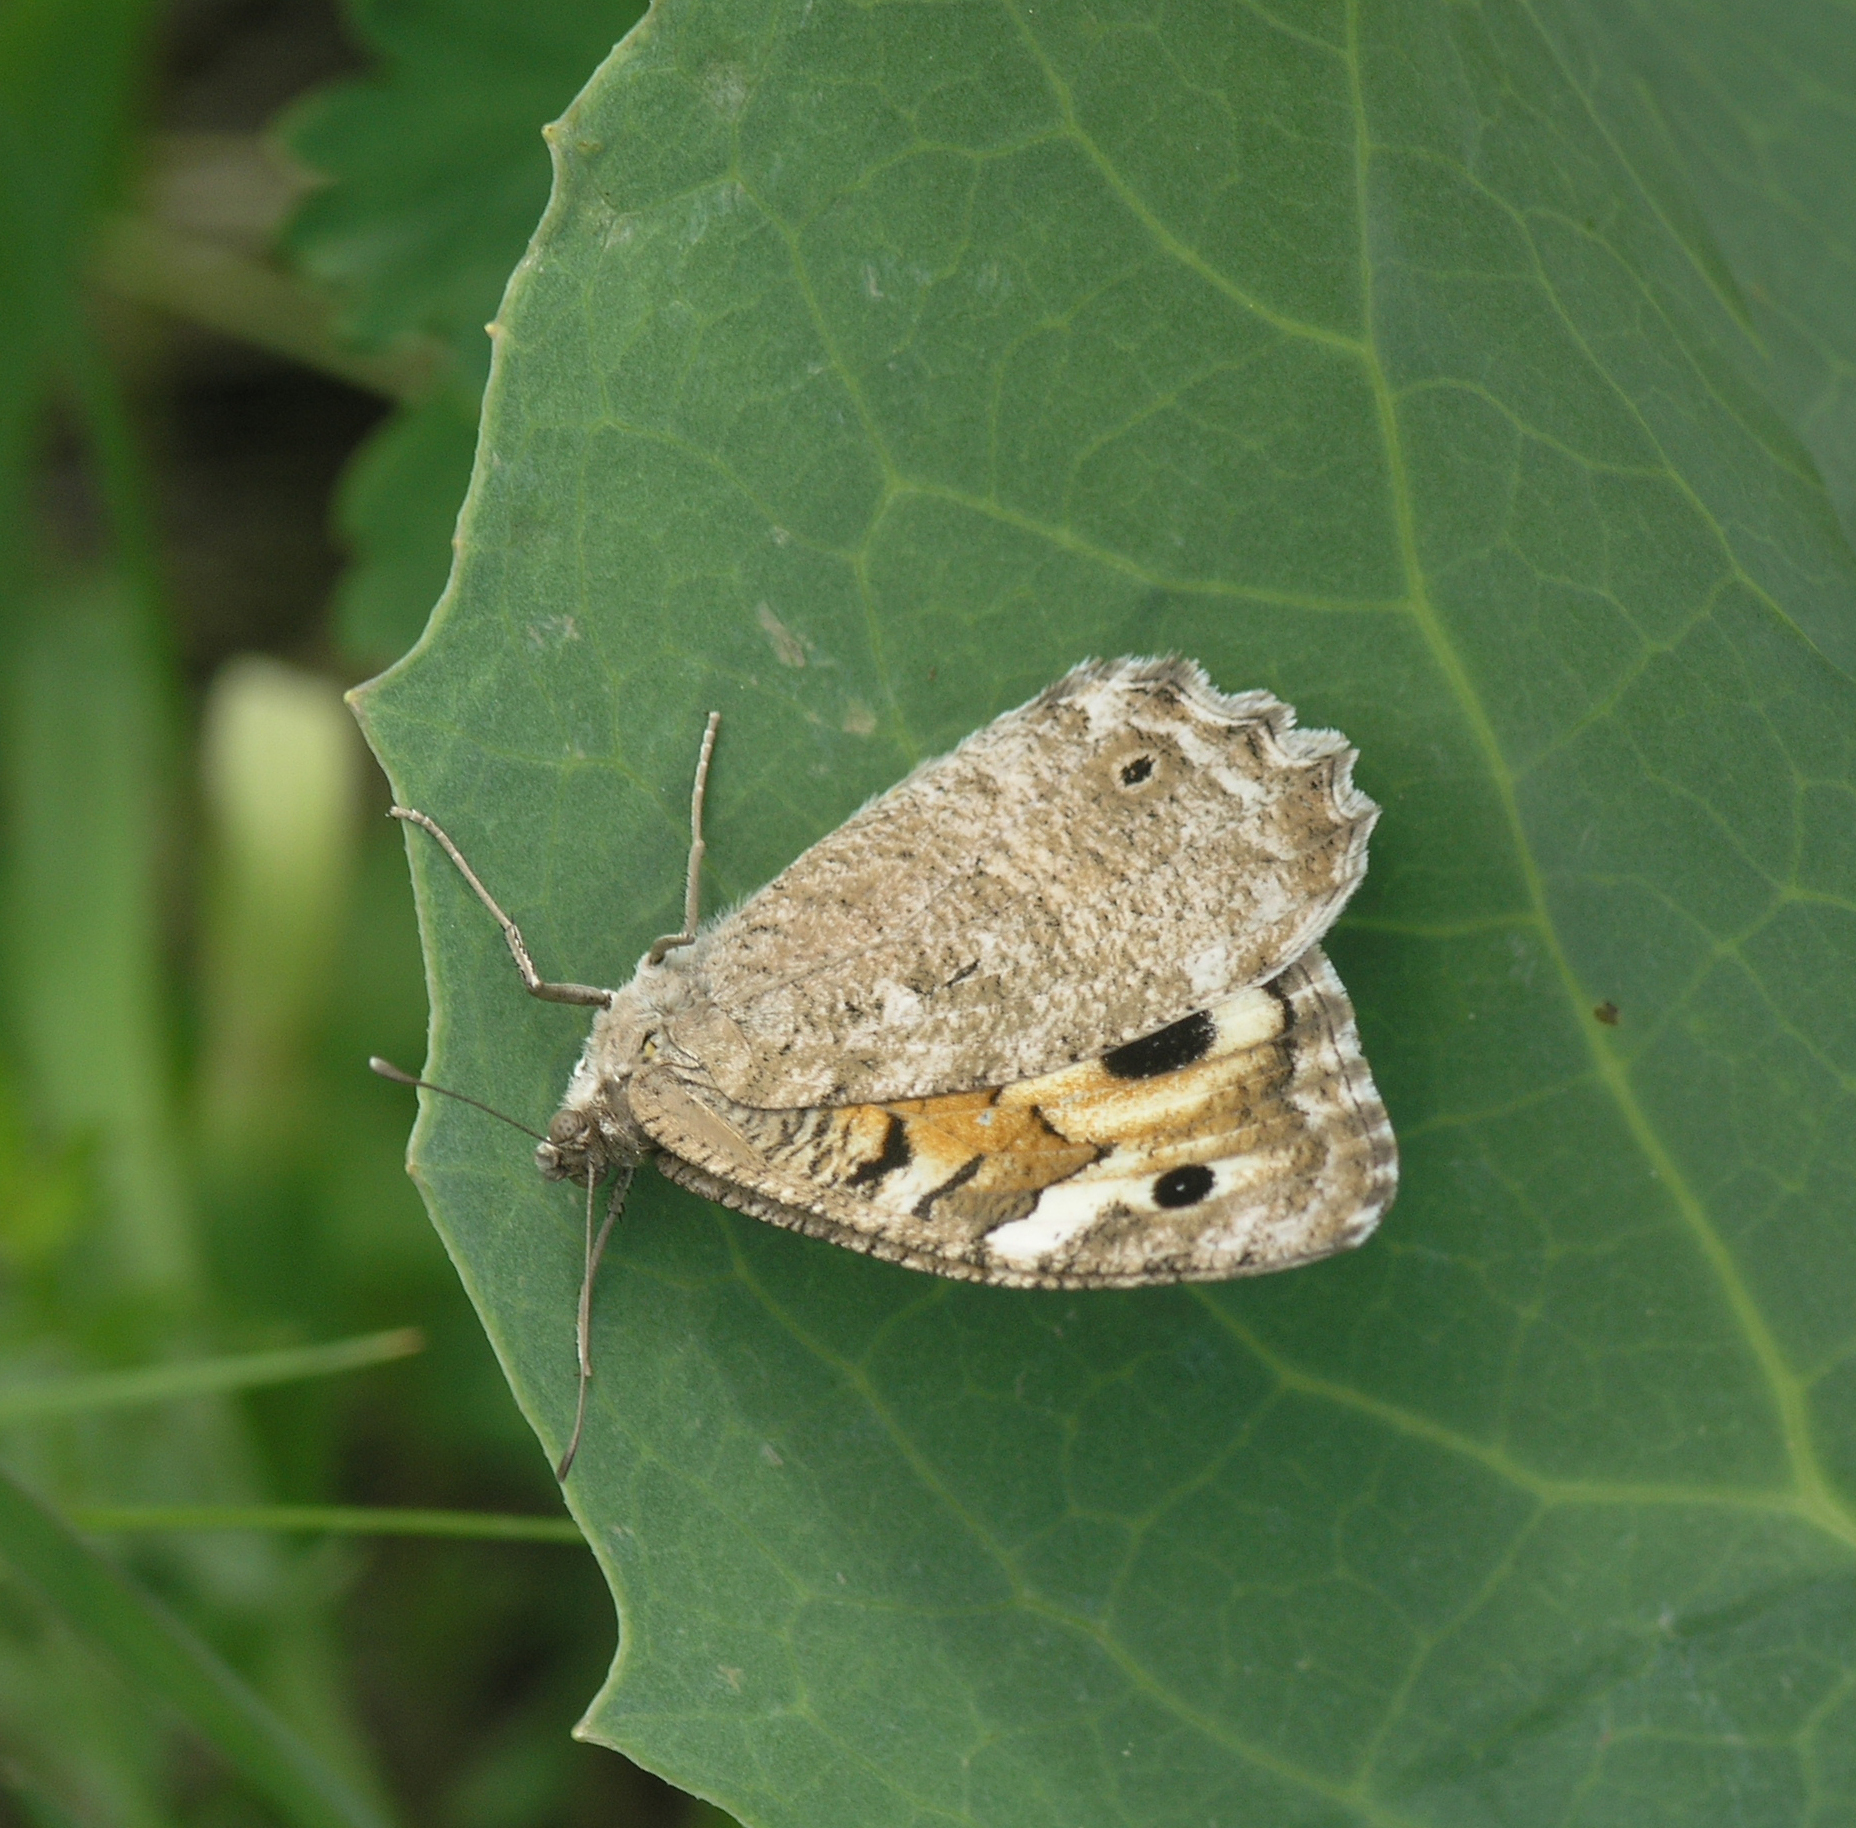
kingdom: Animalia
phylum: Arthropoda
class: Insecta
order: Lepidoptera
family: Nymphalidae
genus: Satyrus
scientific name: Satyrus Chazara enervata
